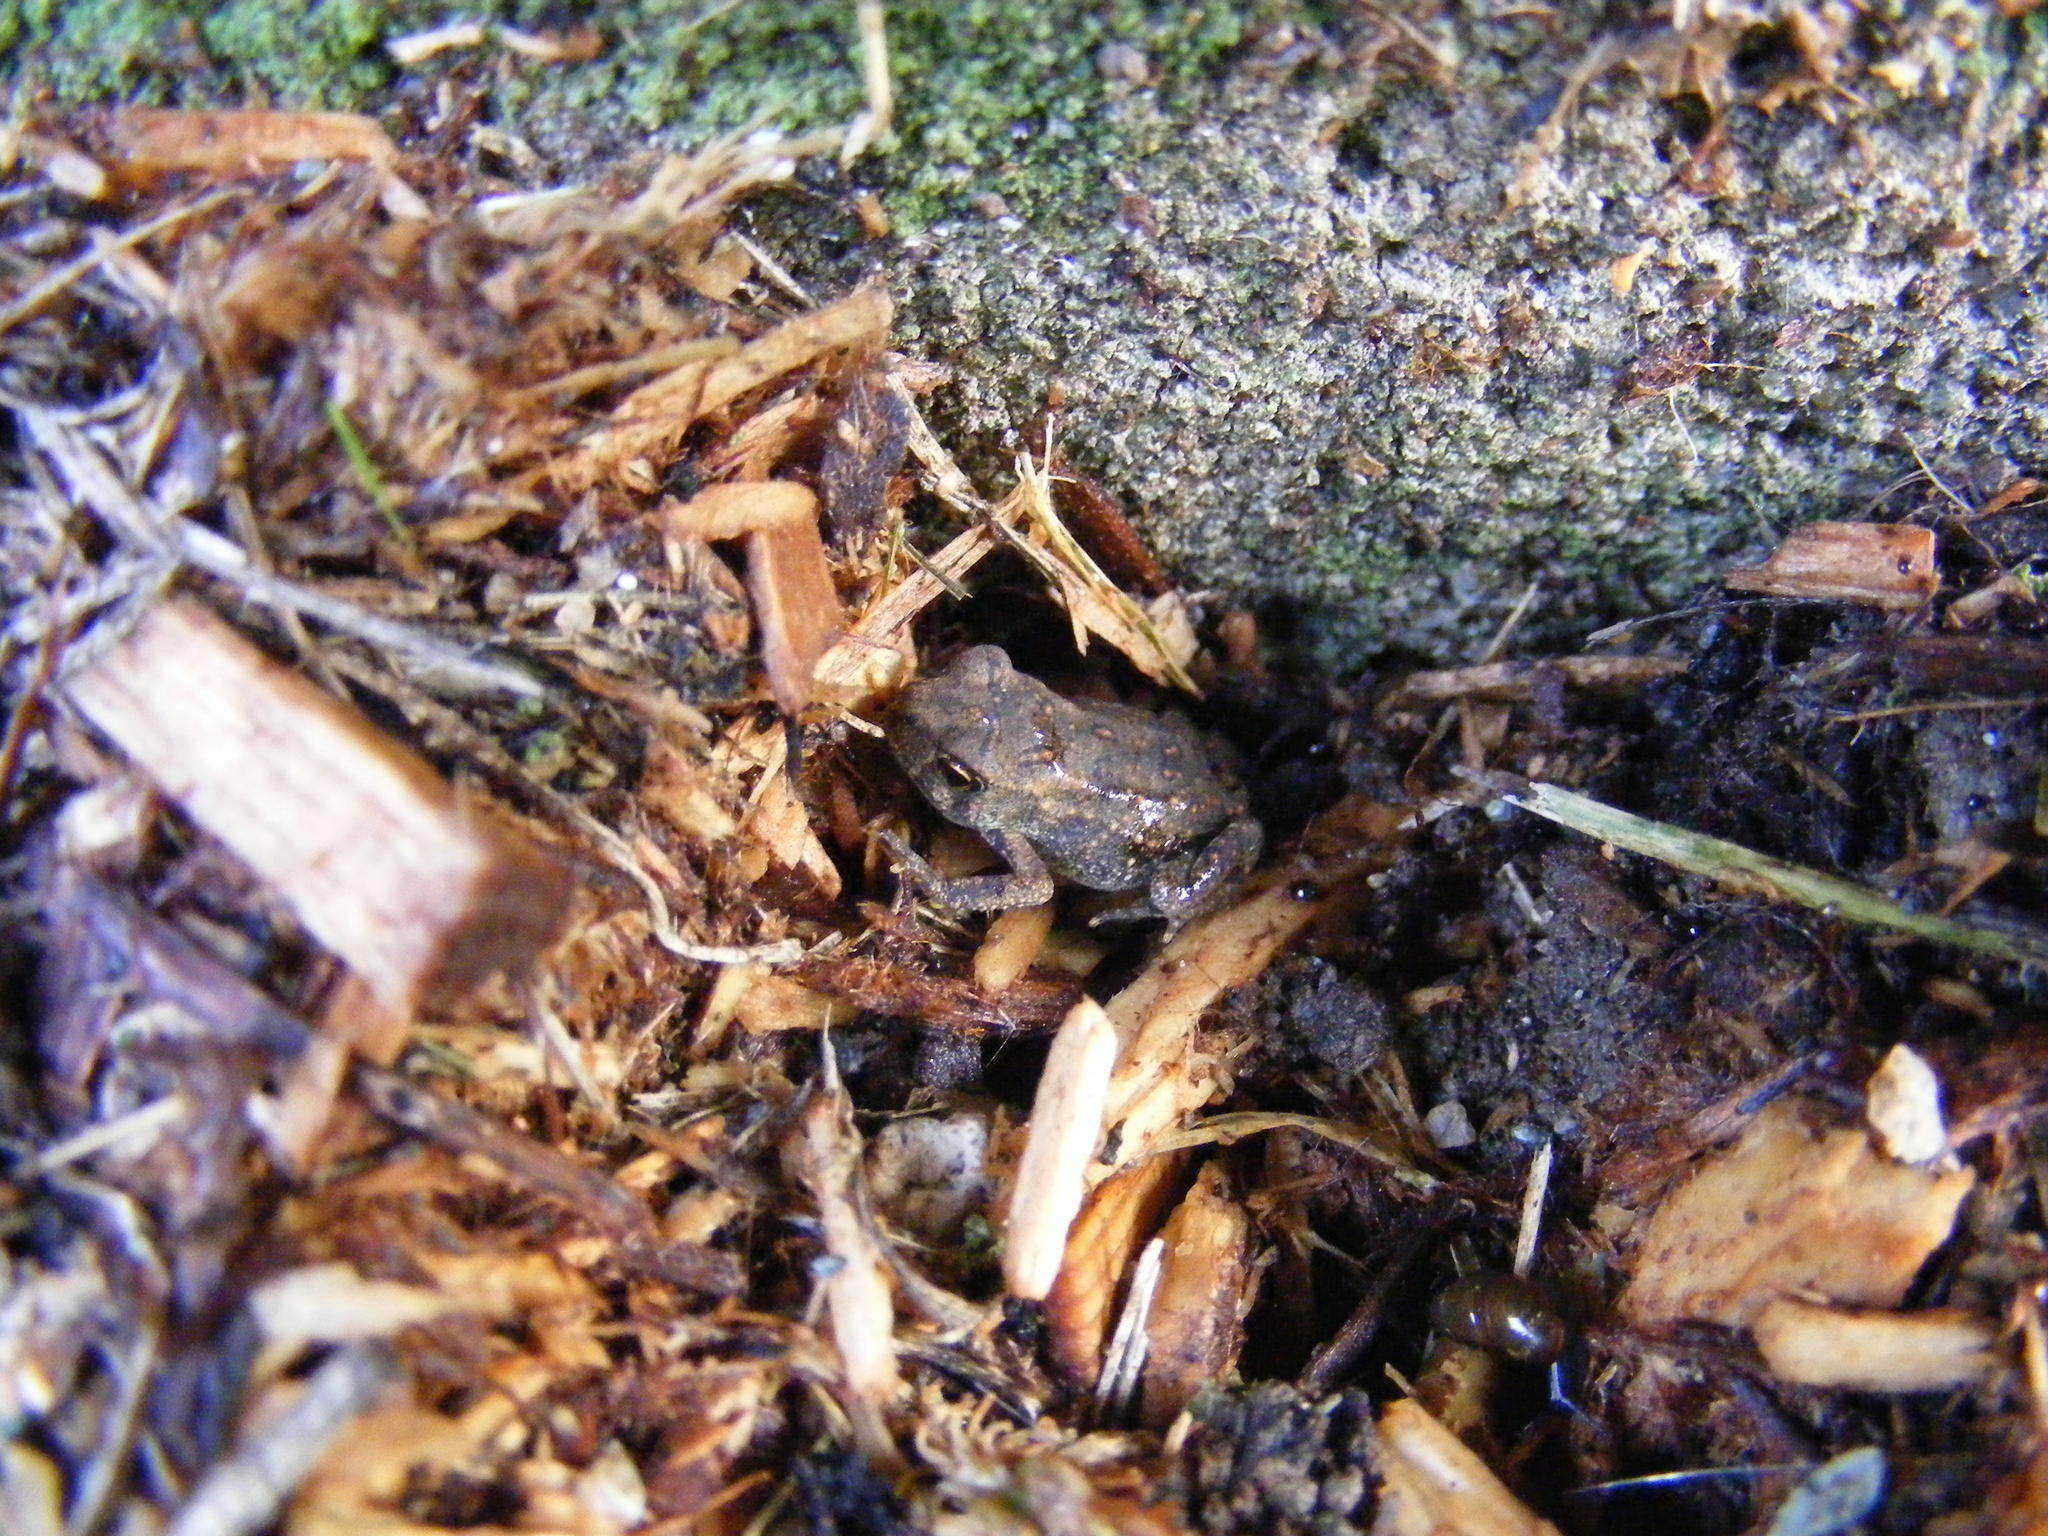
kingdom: Animalia
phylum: Chordata
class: Amphibia
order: Anura
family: Bufonidae
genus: Anaxyrus
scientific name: Anaxyrus americanus
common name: American toad
